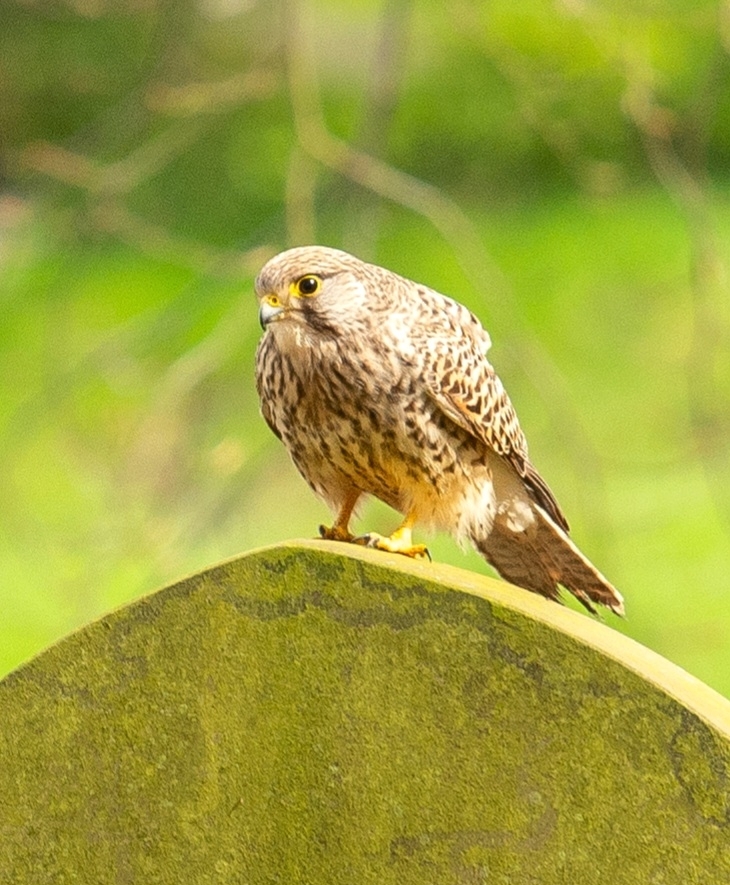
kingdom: Animalia
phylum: Chordata
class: Aves
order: Falconiformes
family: Falconidae
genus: Falco
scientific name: Falco tinnunculus
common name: Common kestrel
